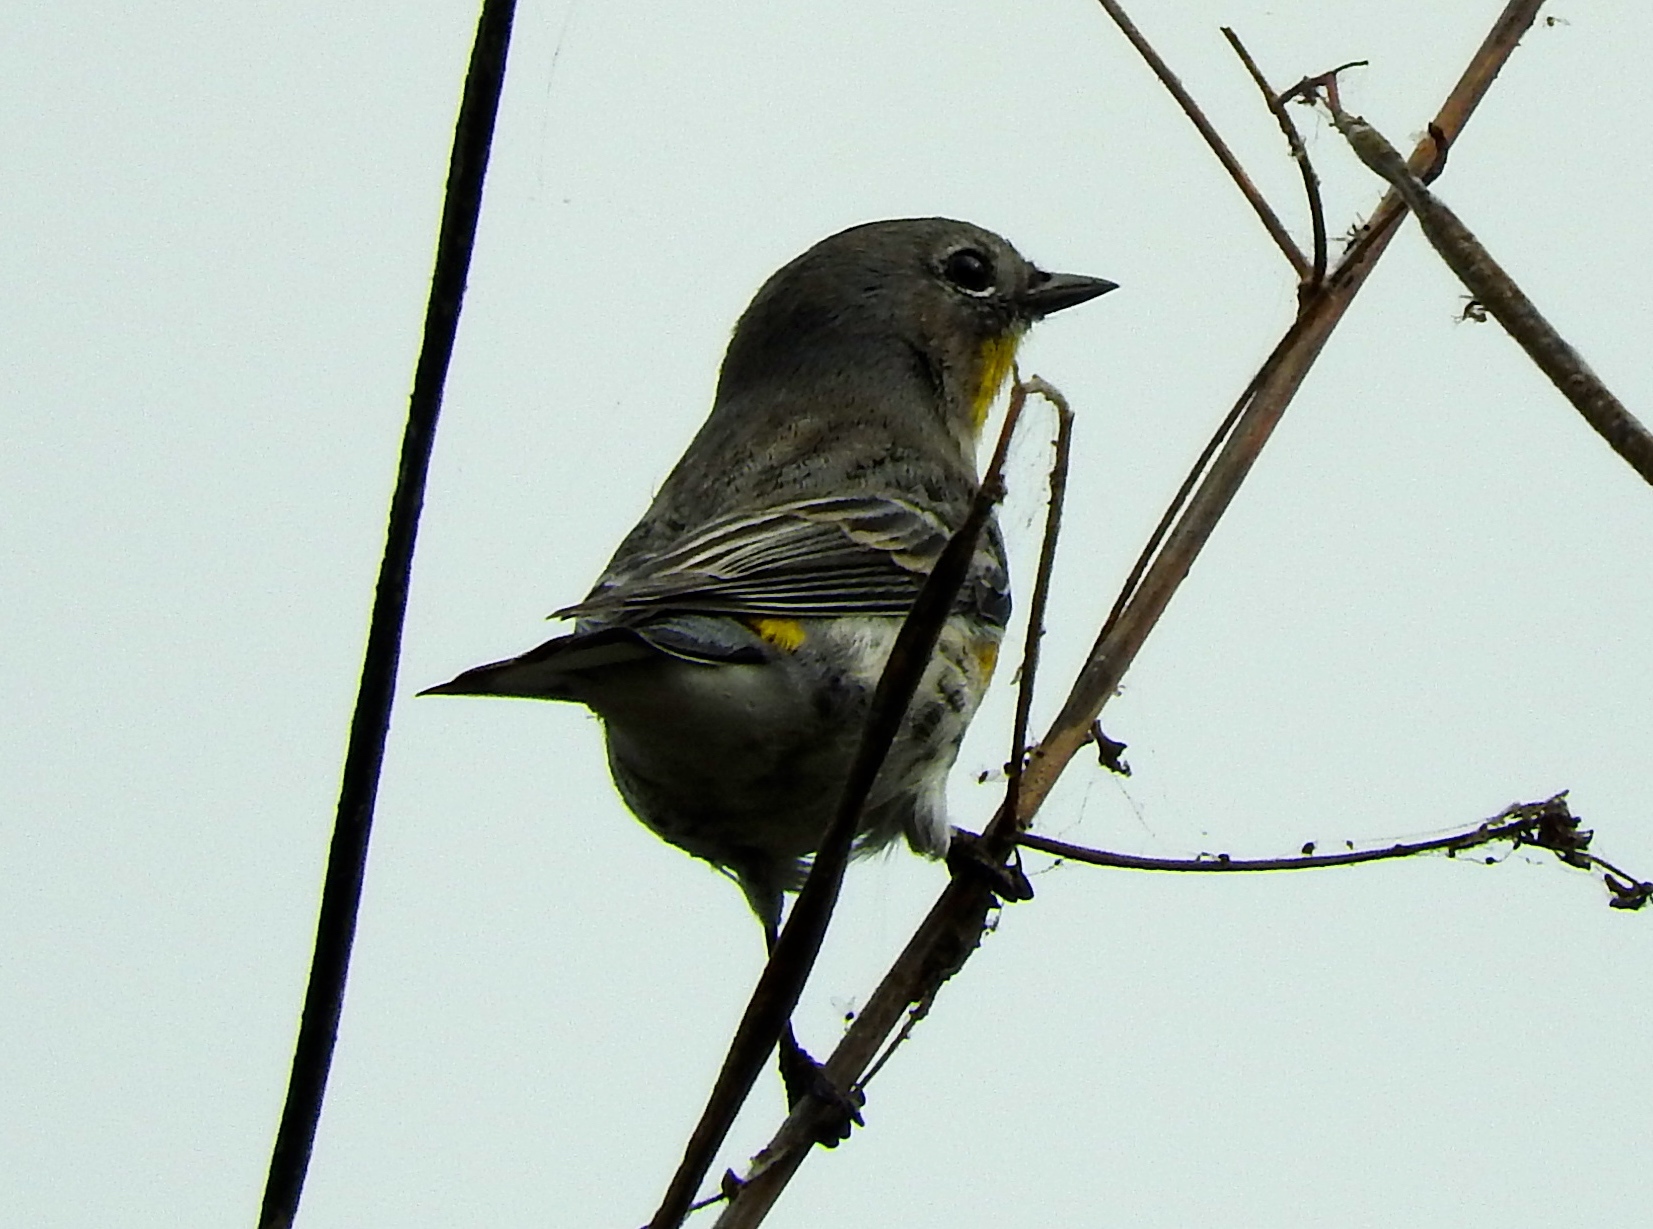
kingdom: Animalia
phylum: Chordata
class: Aves
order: Passeriformes
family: Parulidae
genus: Setophaga
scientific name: Setophaga coronata
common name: Myrtle warbler
